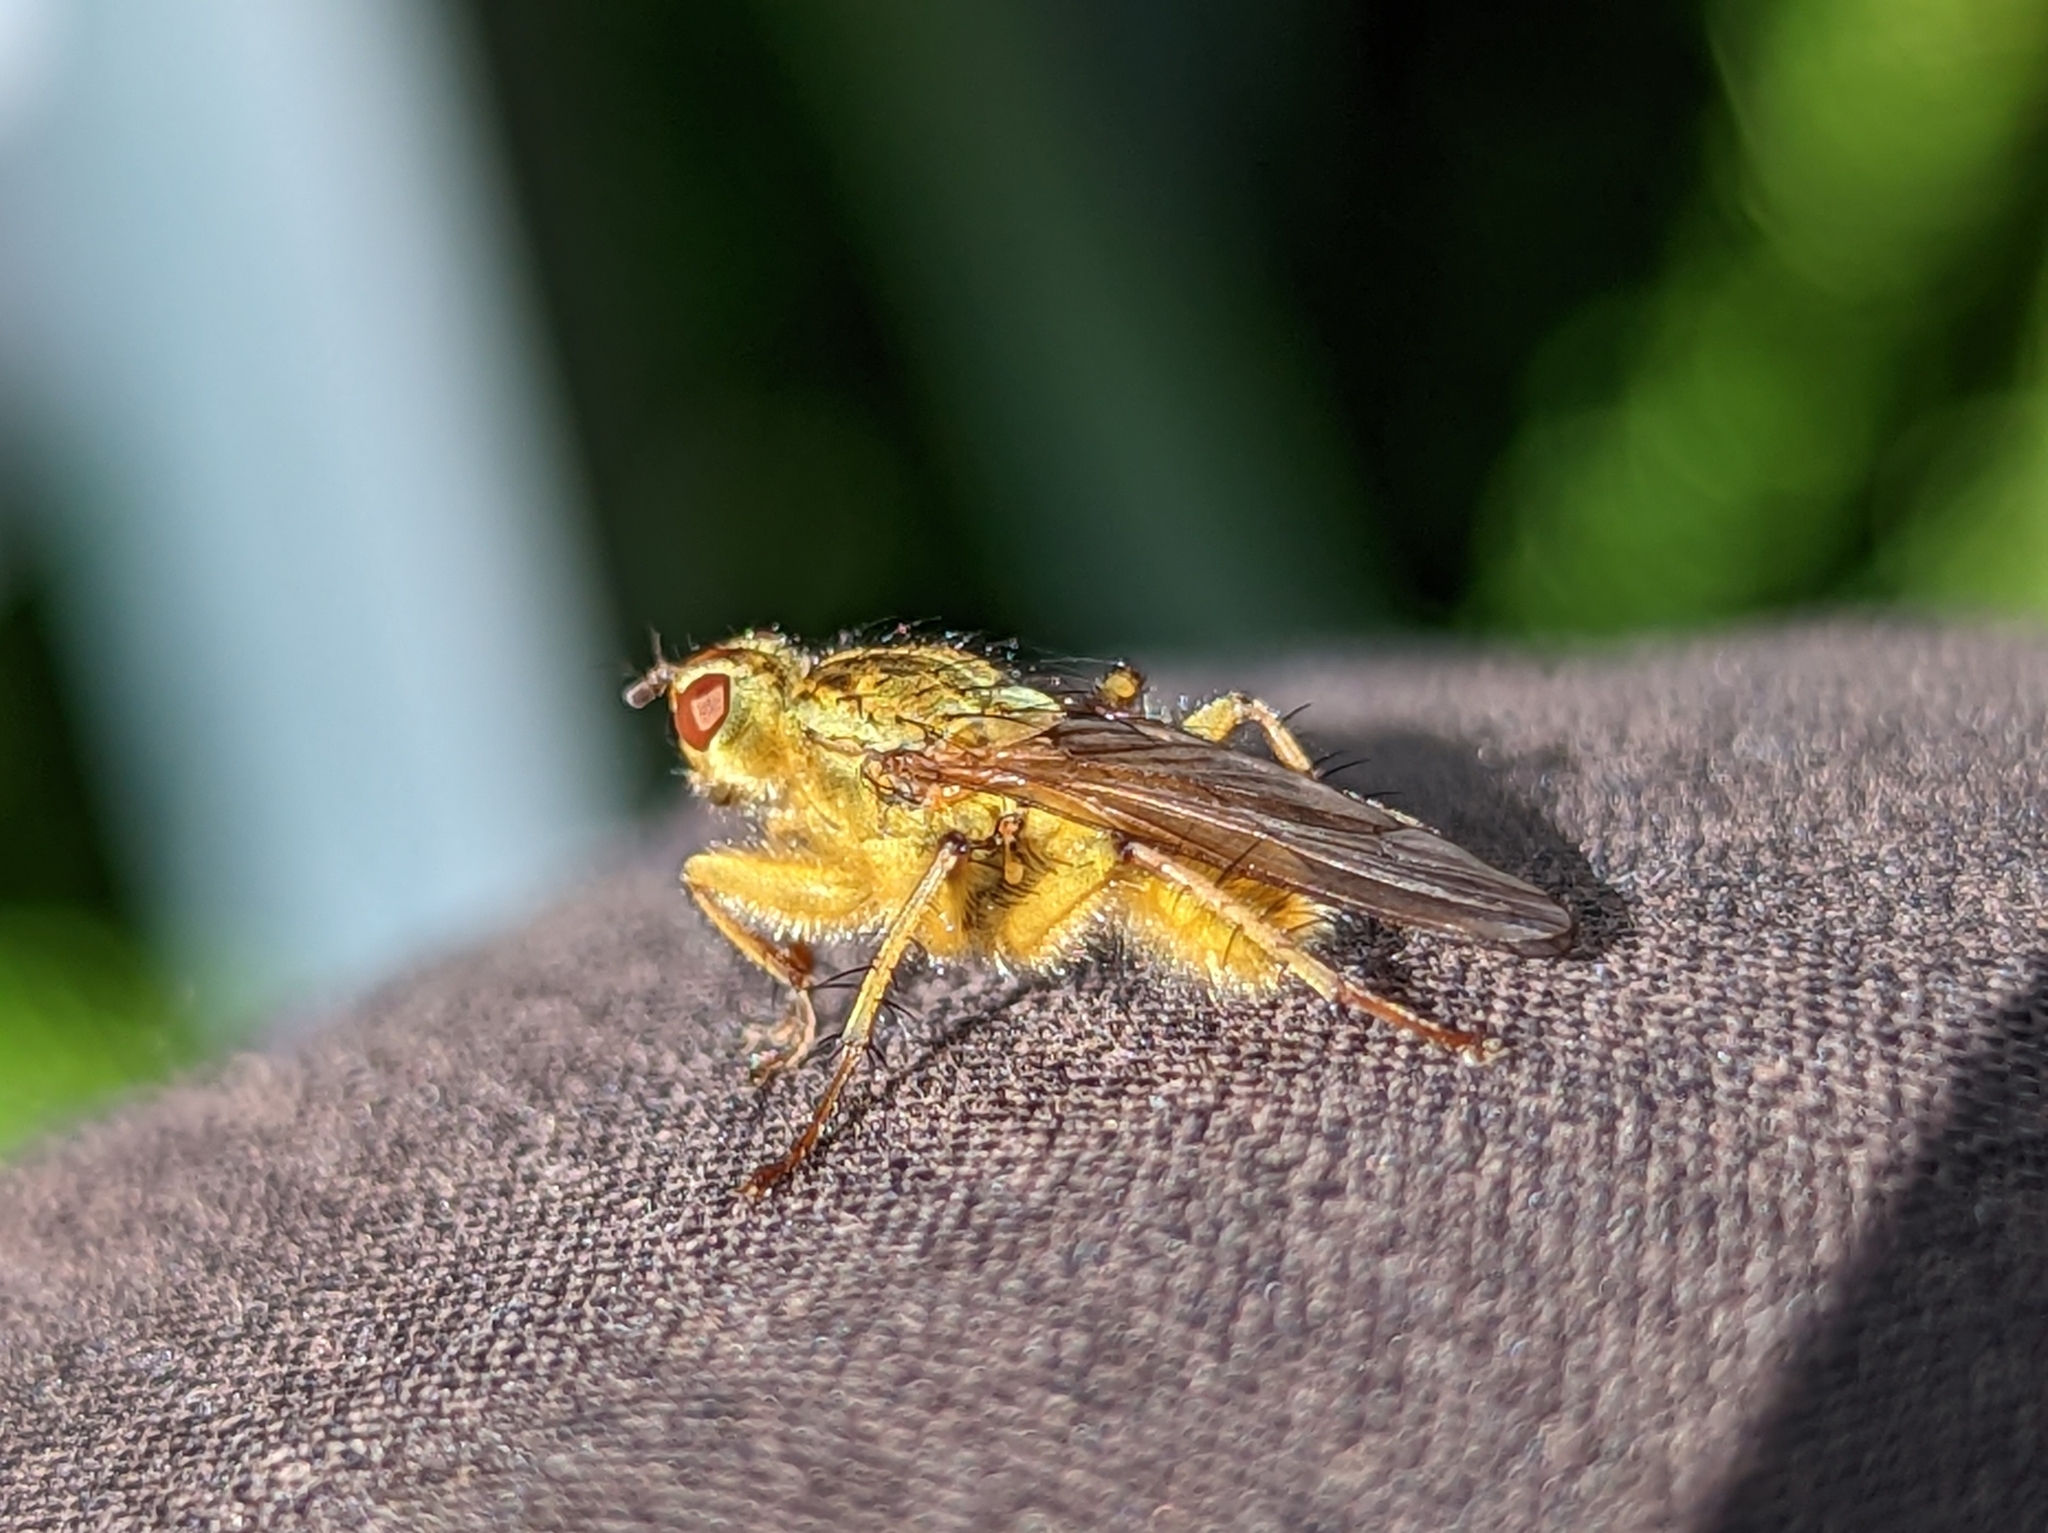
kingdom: Animalia
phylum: Arthropoda
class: Insecta
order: Diptera
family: Scathophagidae
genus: Scathophaga
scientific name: Scathophaga stercoraria
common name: Yellow dung fly
